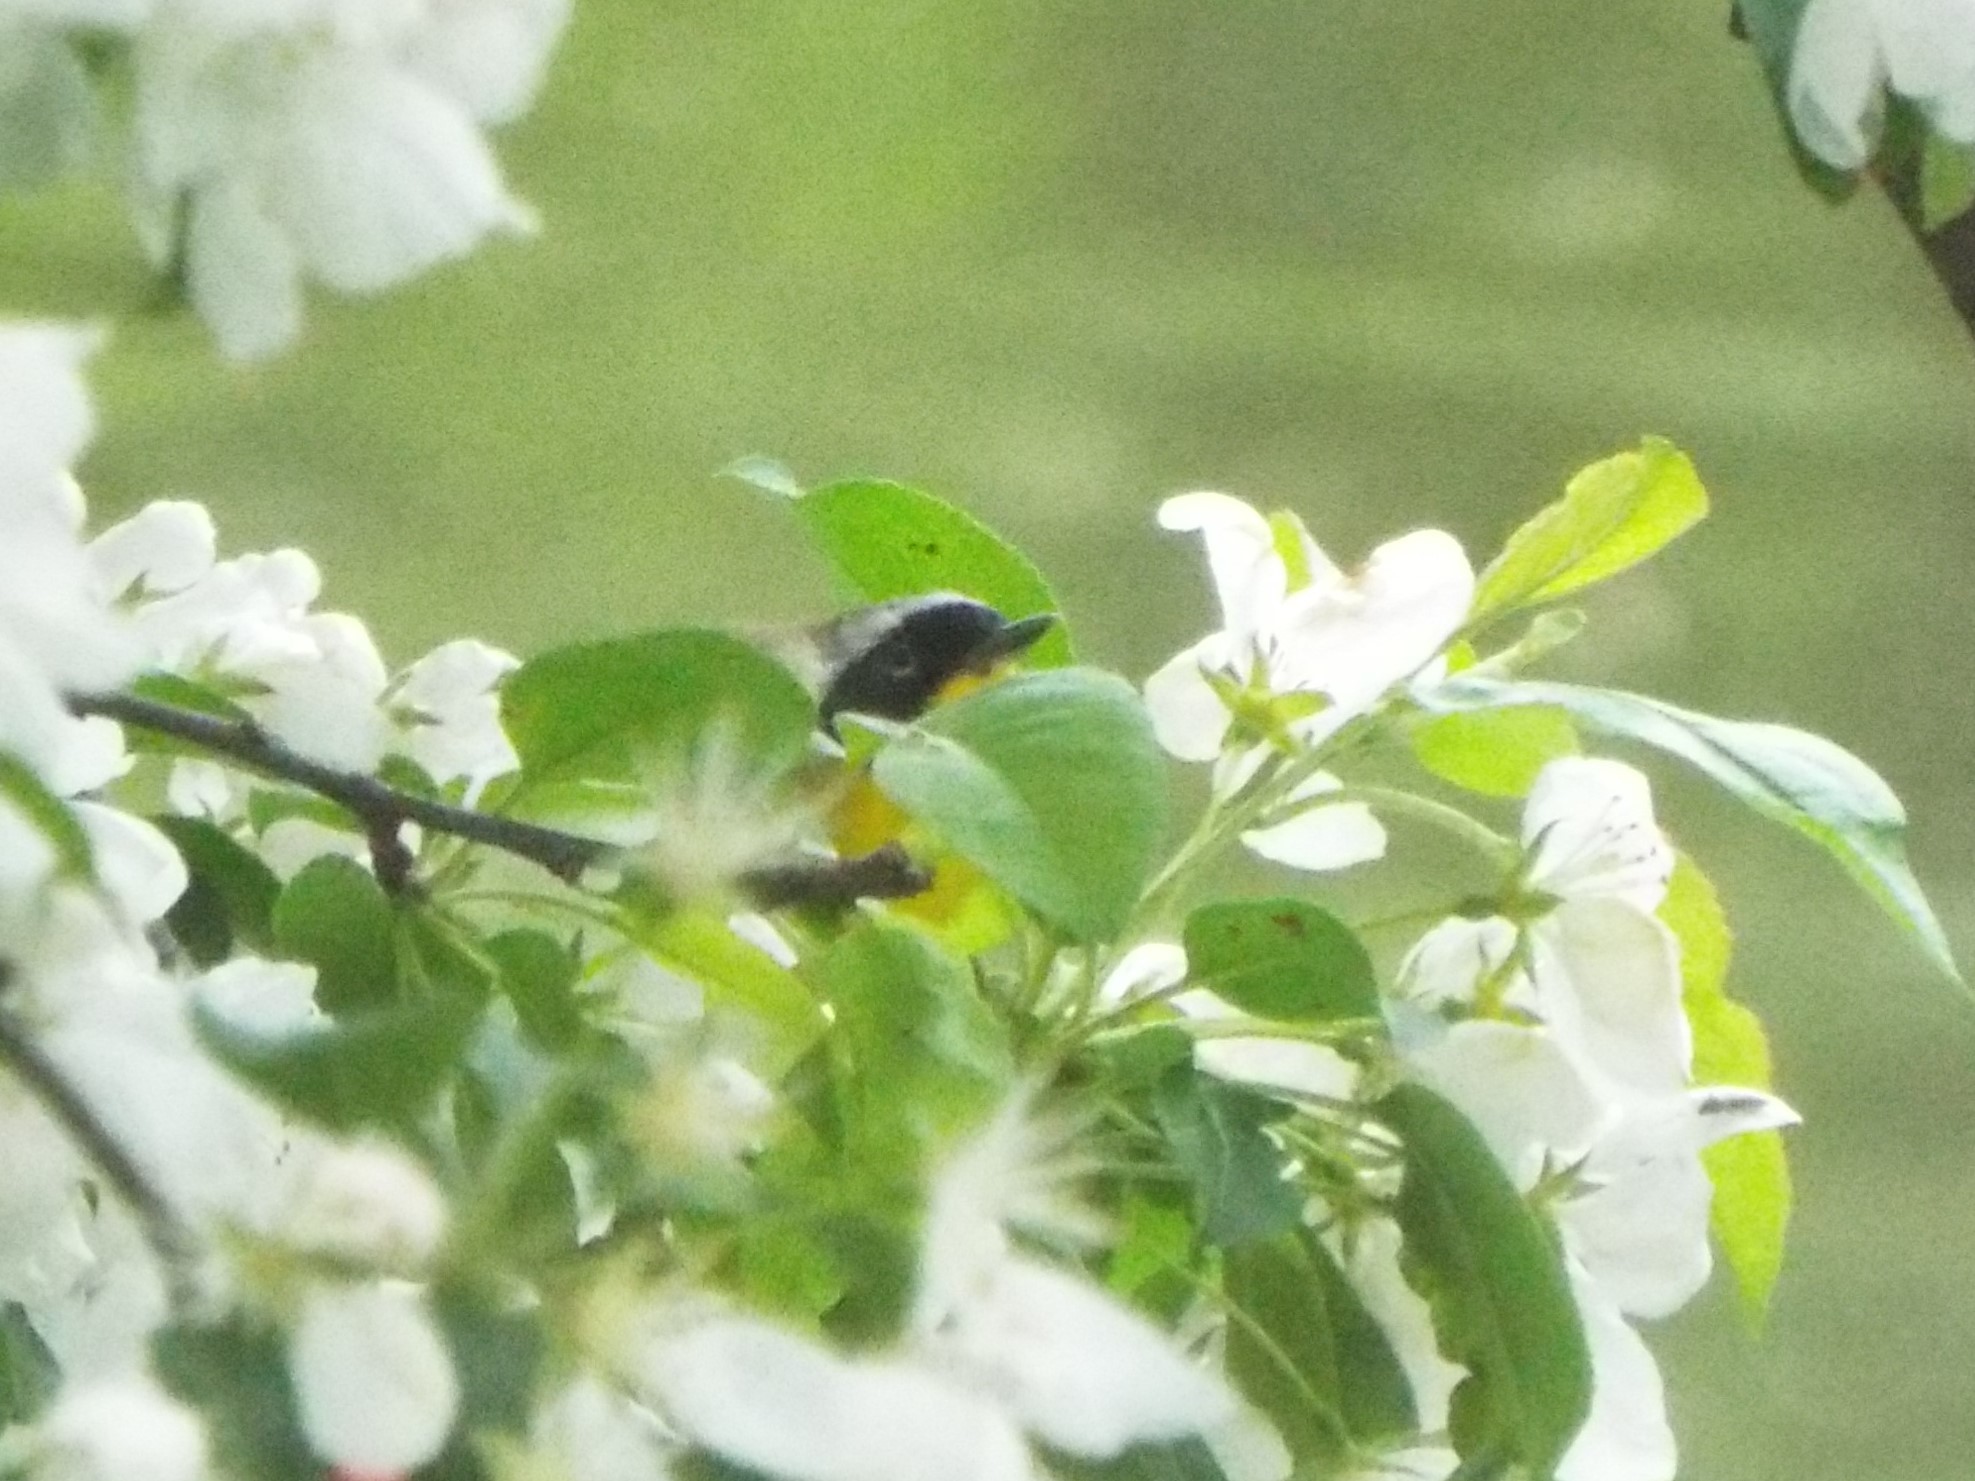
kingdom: Animalia
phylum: Chordata
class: Aves
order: Passeriformes
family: Parulidae
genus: Geothlypis
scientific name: Geothlypis trichas
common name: Common yellowthroat
